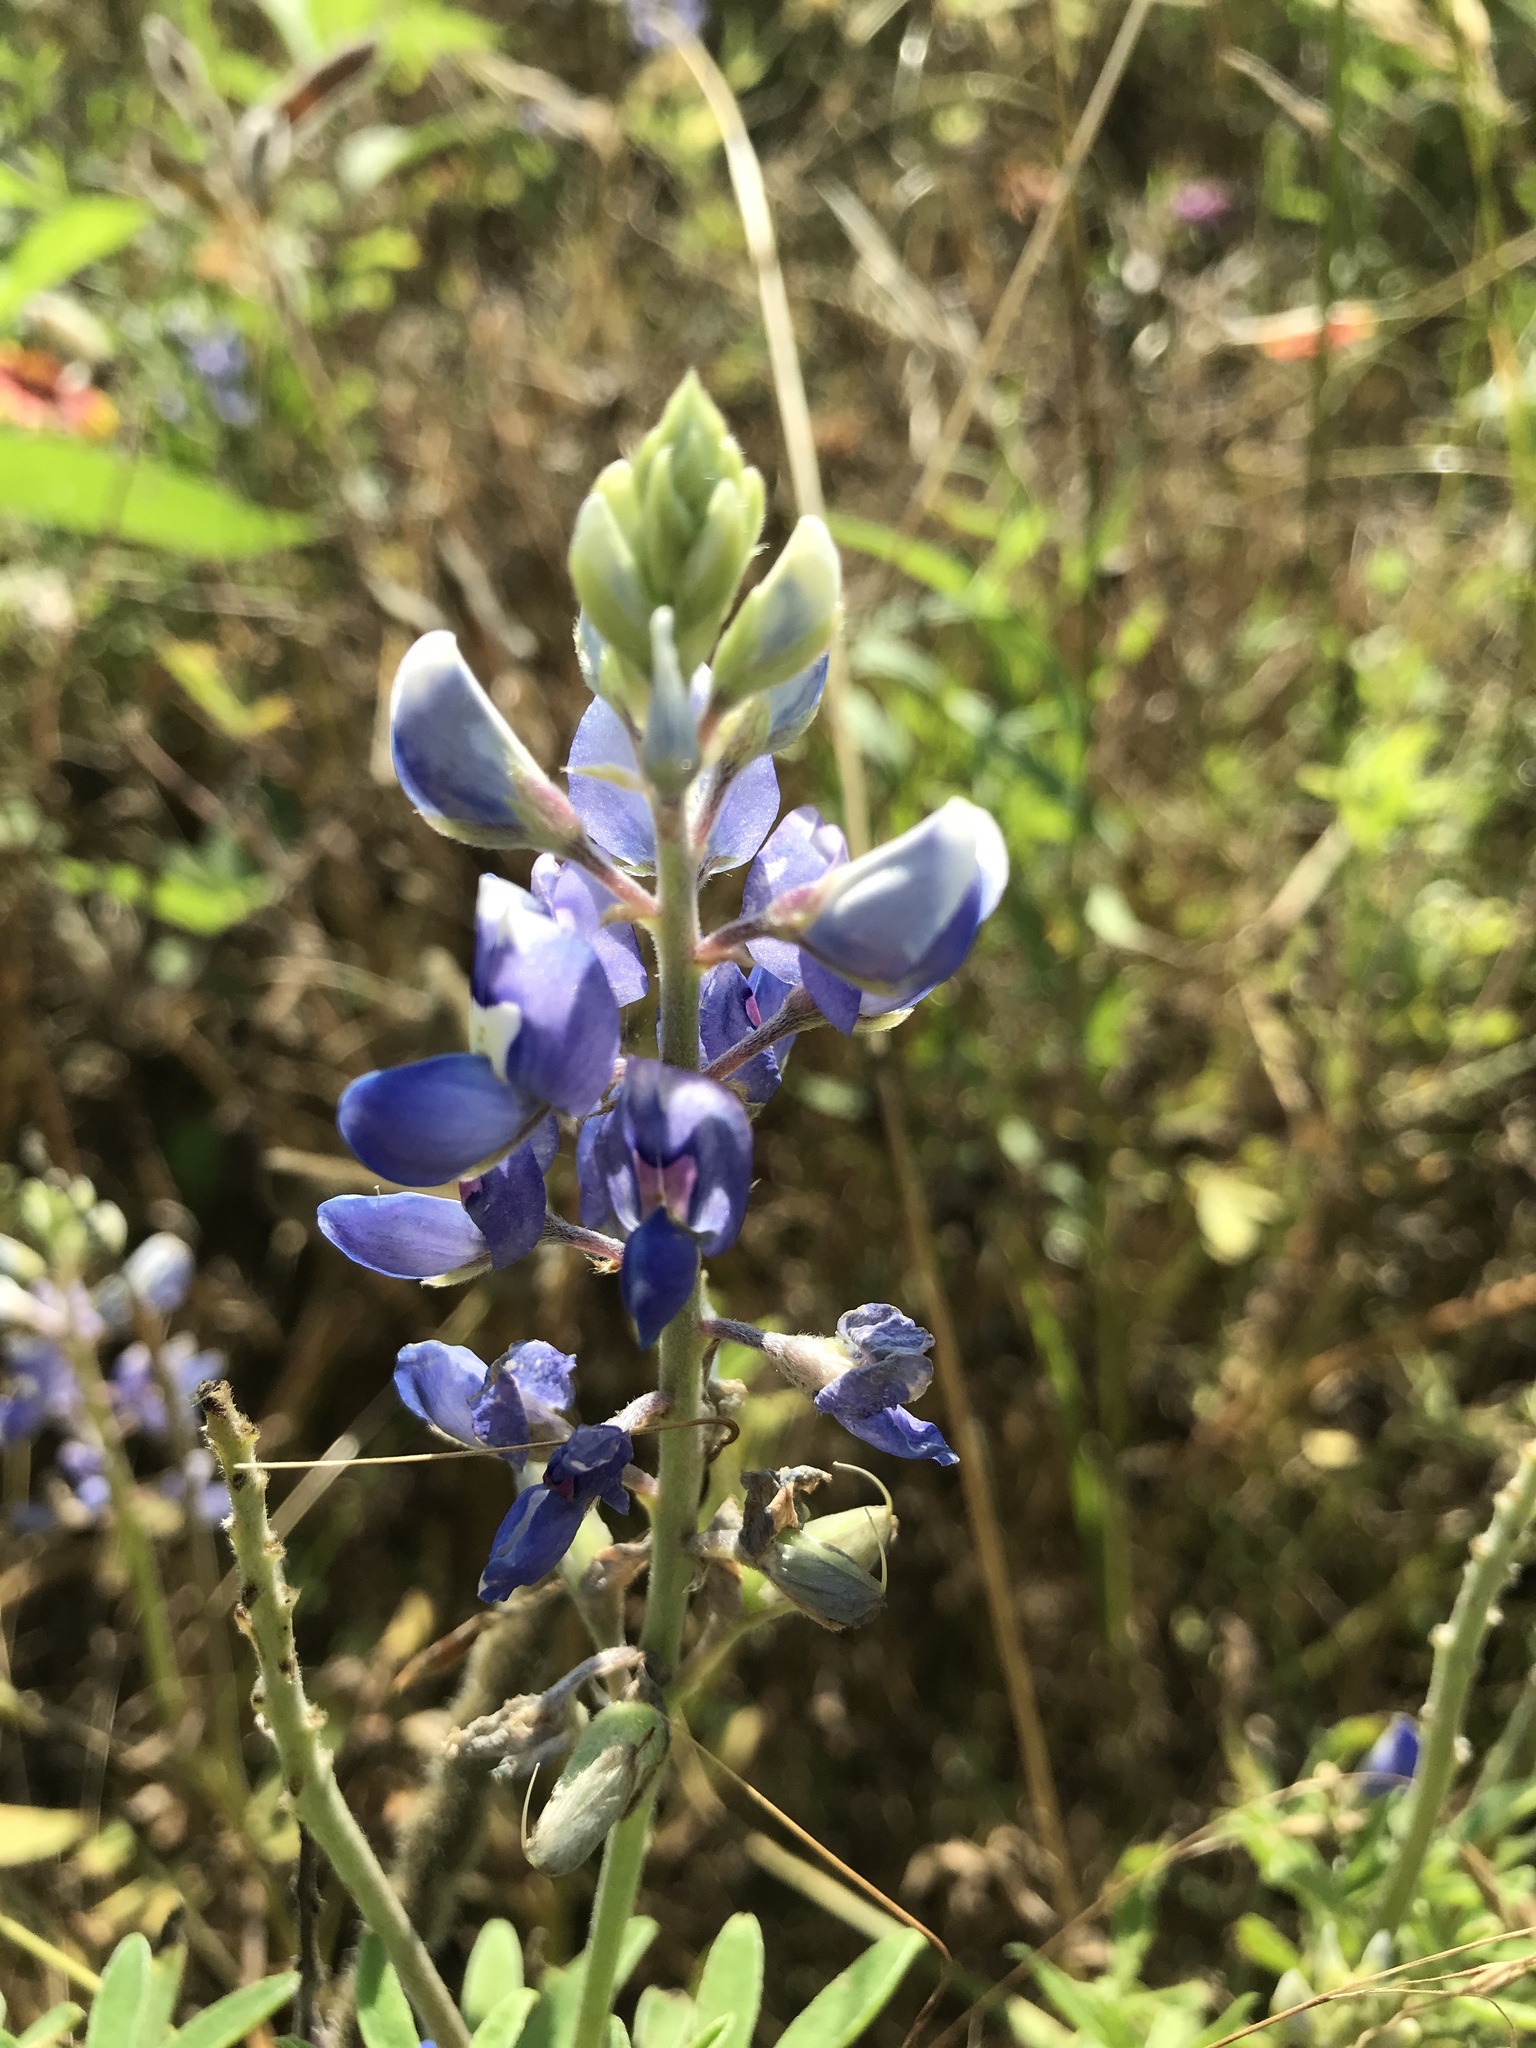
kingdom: Plantae
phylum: Tracheophyta
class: Magnoliopsida
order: Fabales
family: Fabaceae
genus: Lupinus
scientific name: Lupinus texensis
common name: Texas bluebonnet
